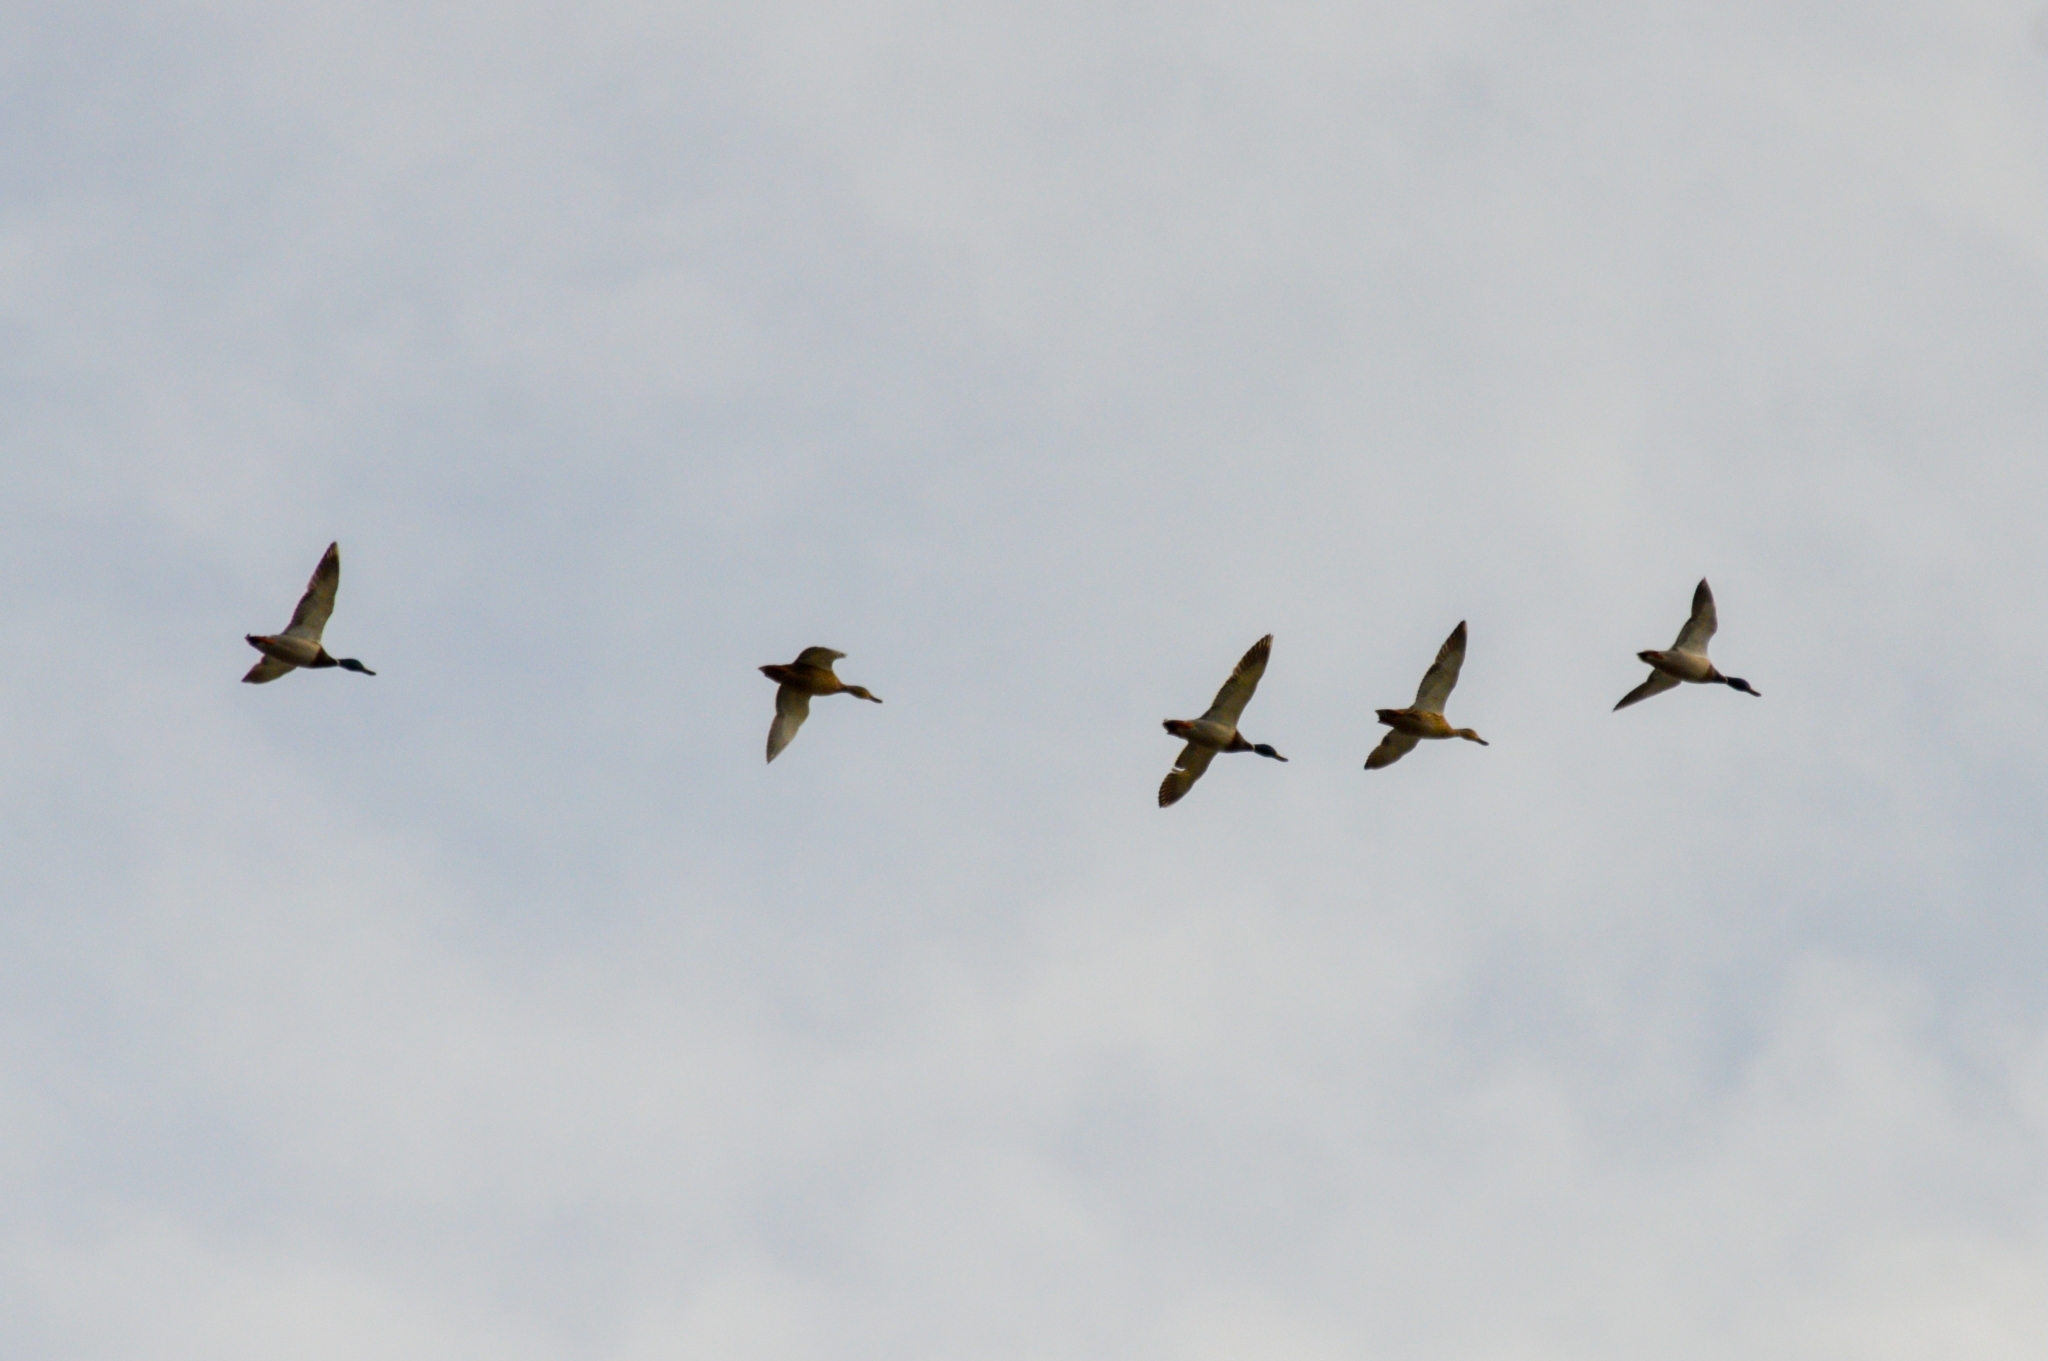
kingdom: Animalia
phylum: Chordata
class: Aves
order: Anseriformes
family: Anatidae
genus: Anas
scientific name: Anas platyrhynchos
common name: Mallard
